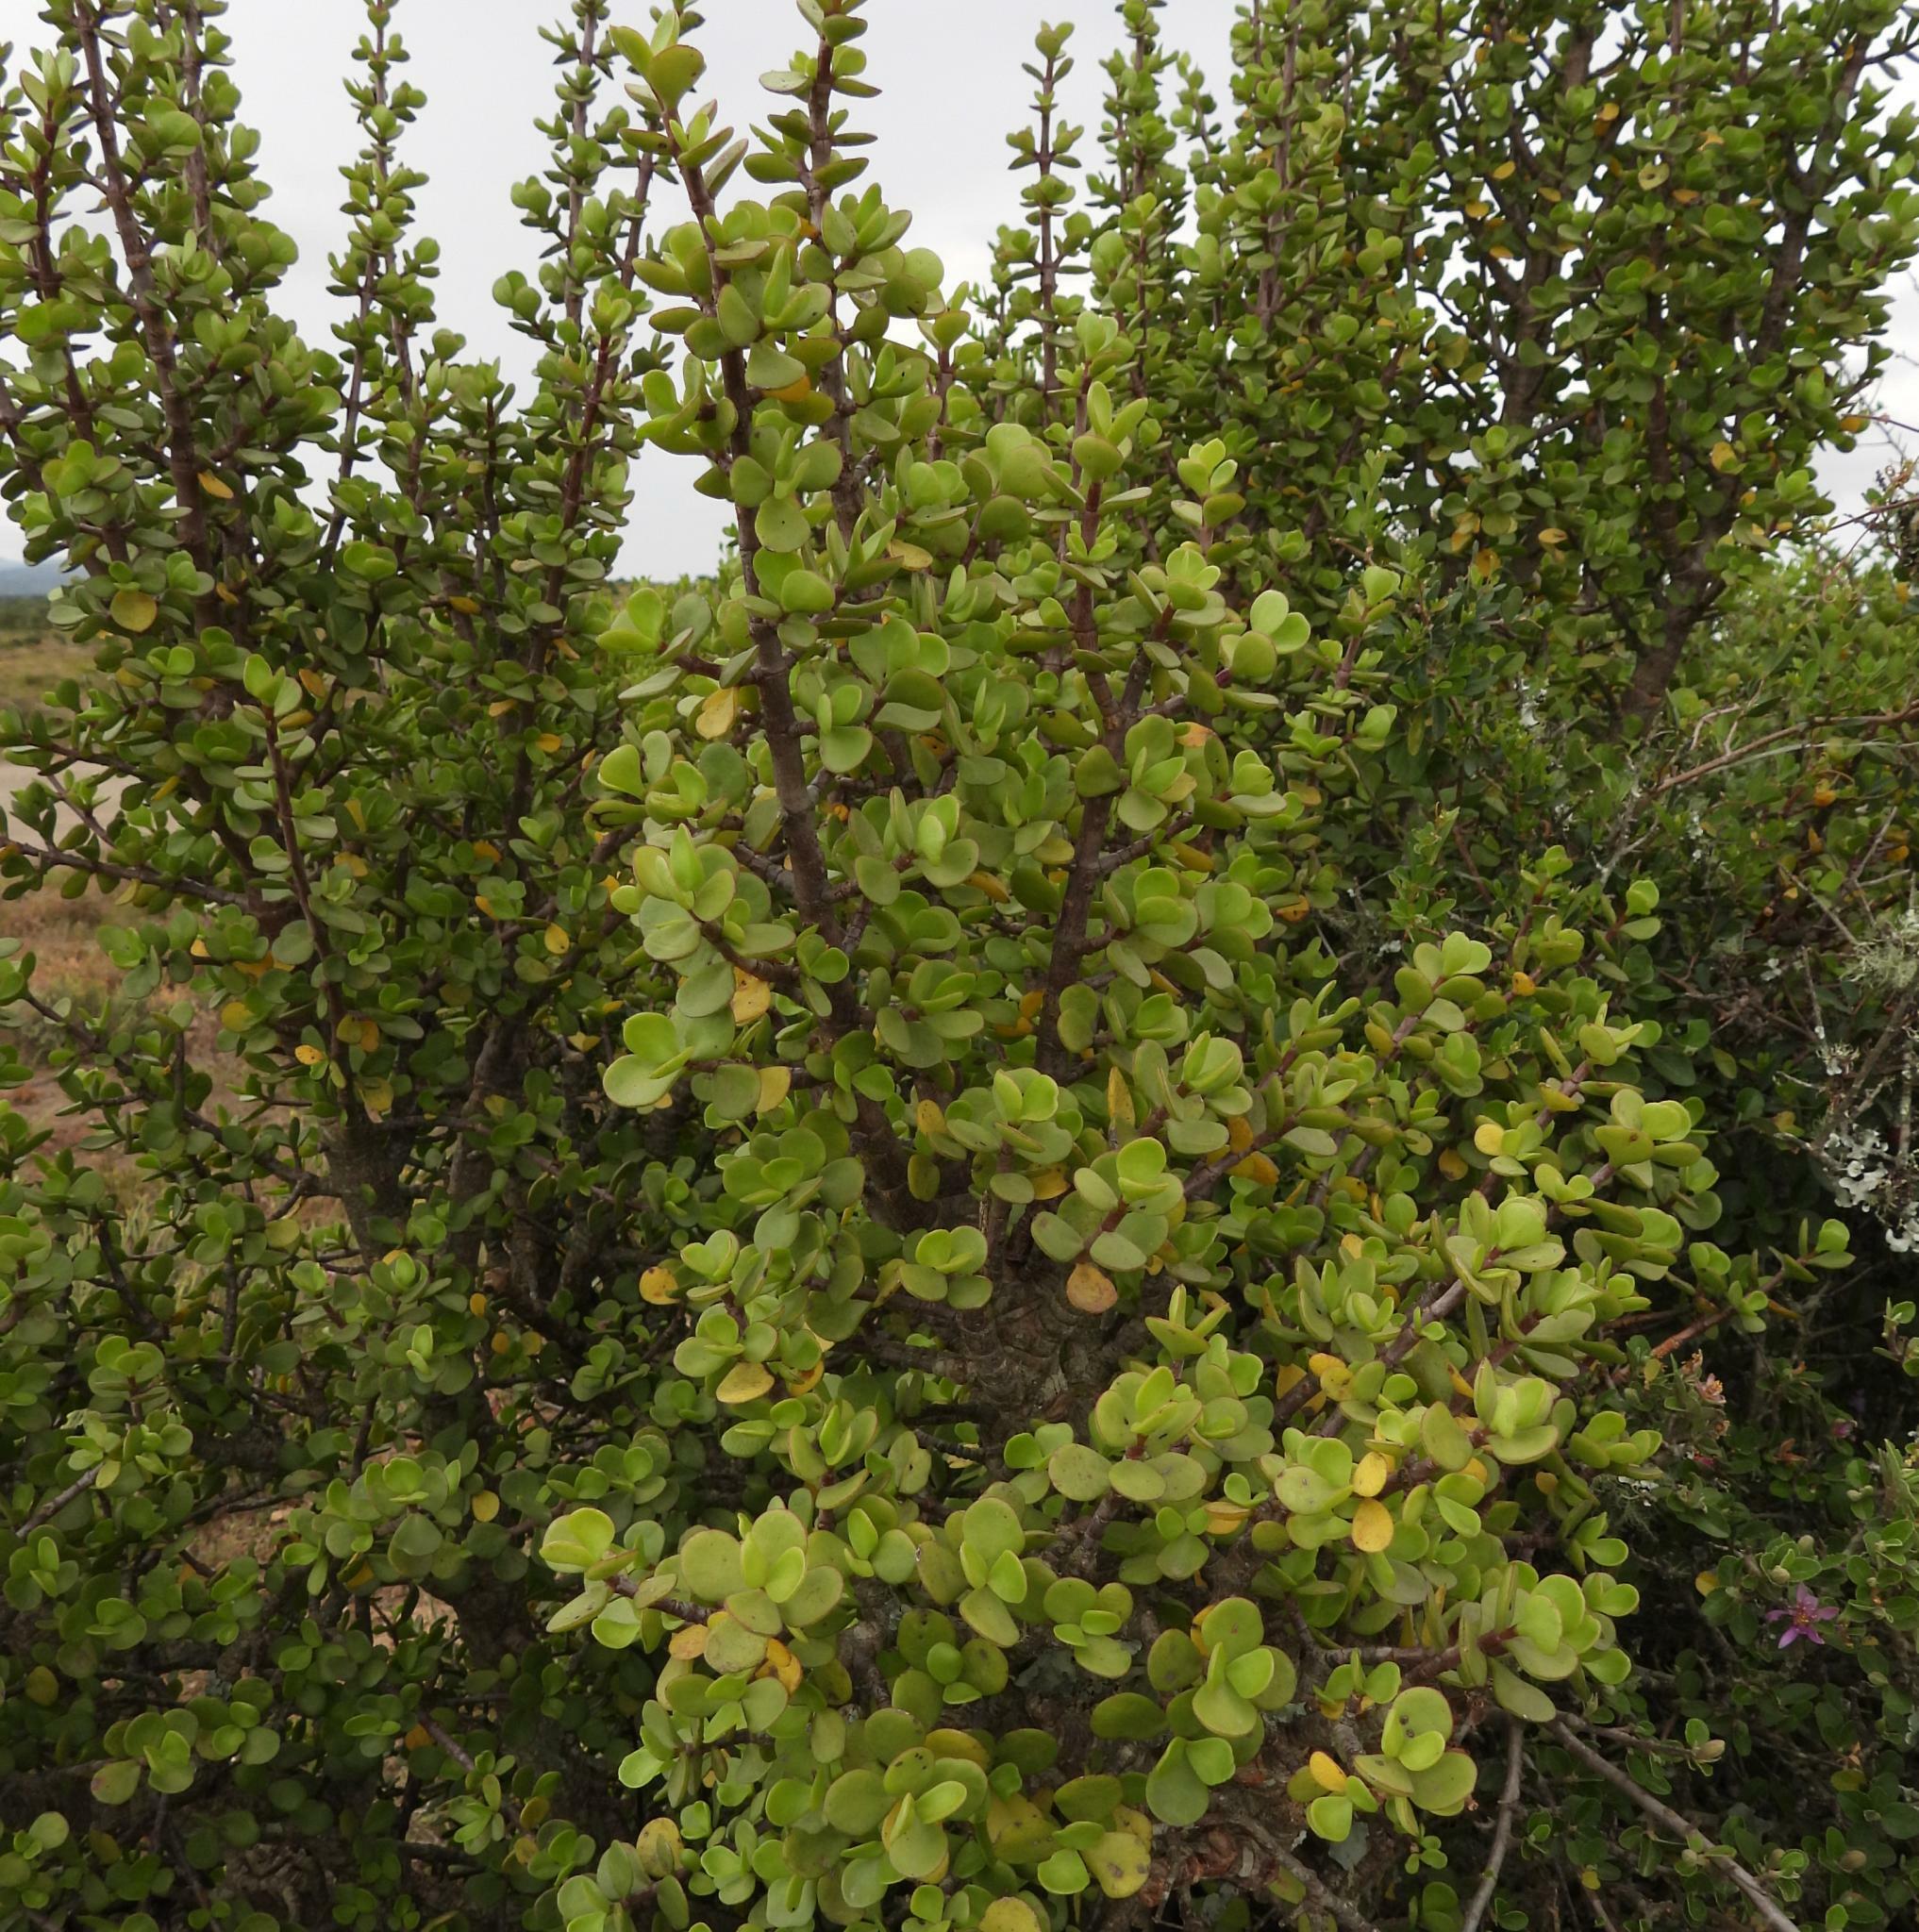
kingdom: Plantae
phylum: Tracheophyta
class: Magnoliopsida
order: Caryophyllales
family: Didiereaceae
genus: Portulacaria
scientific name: Portulacaria afra
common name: Elephant-bush
